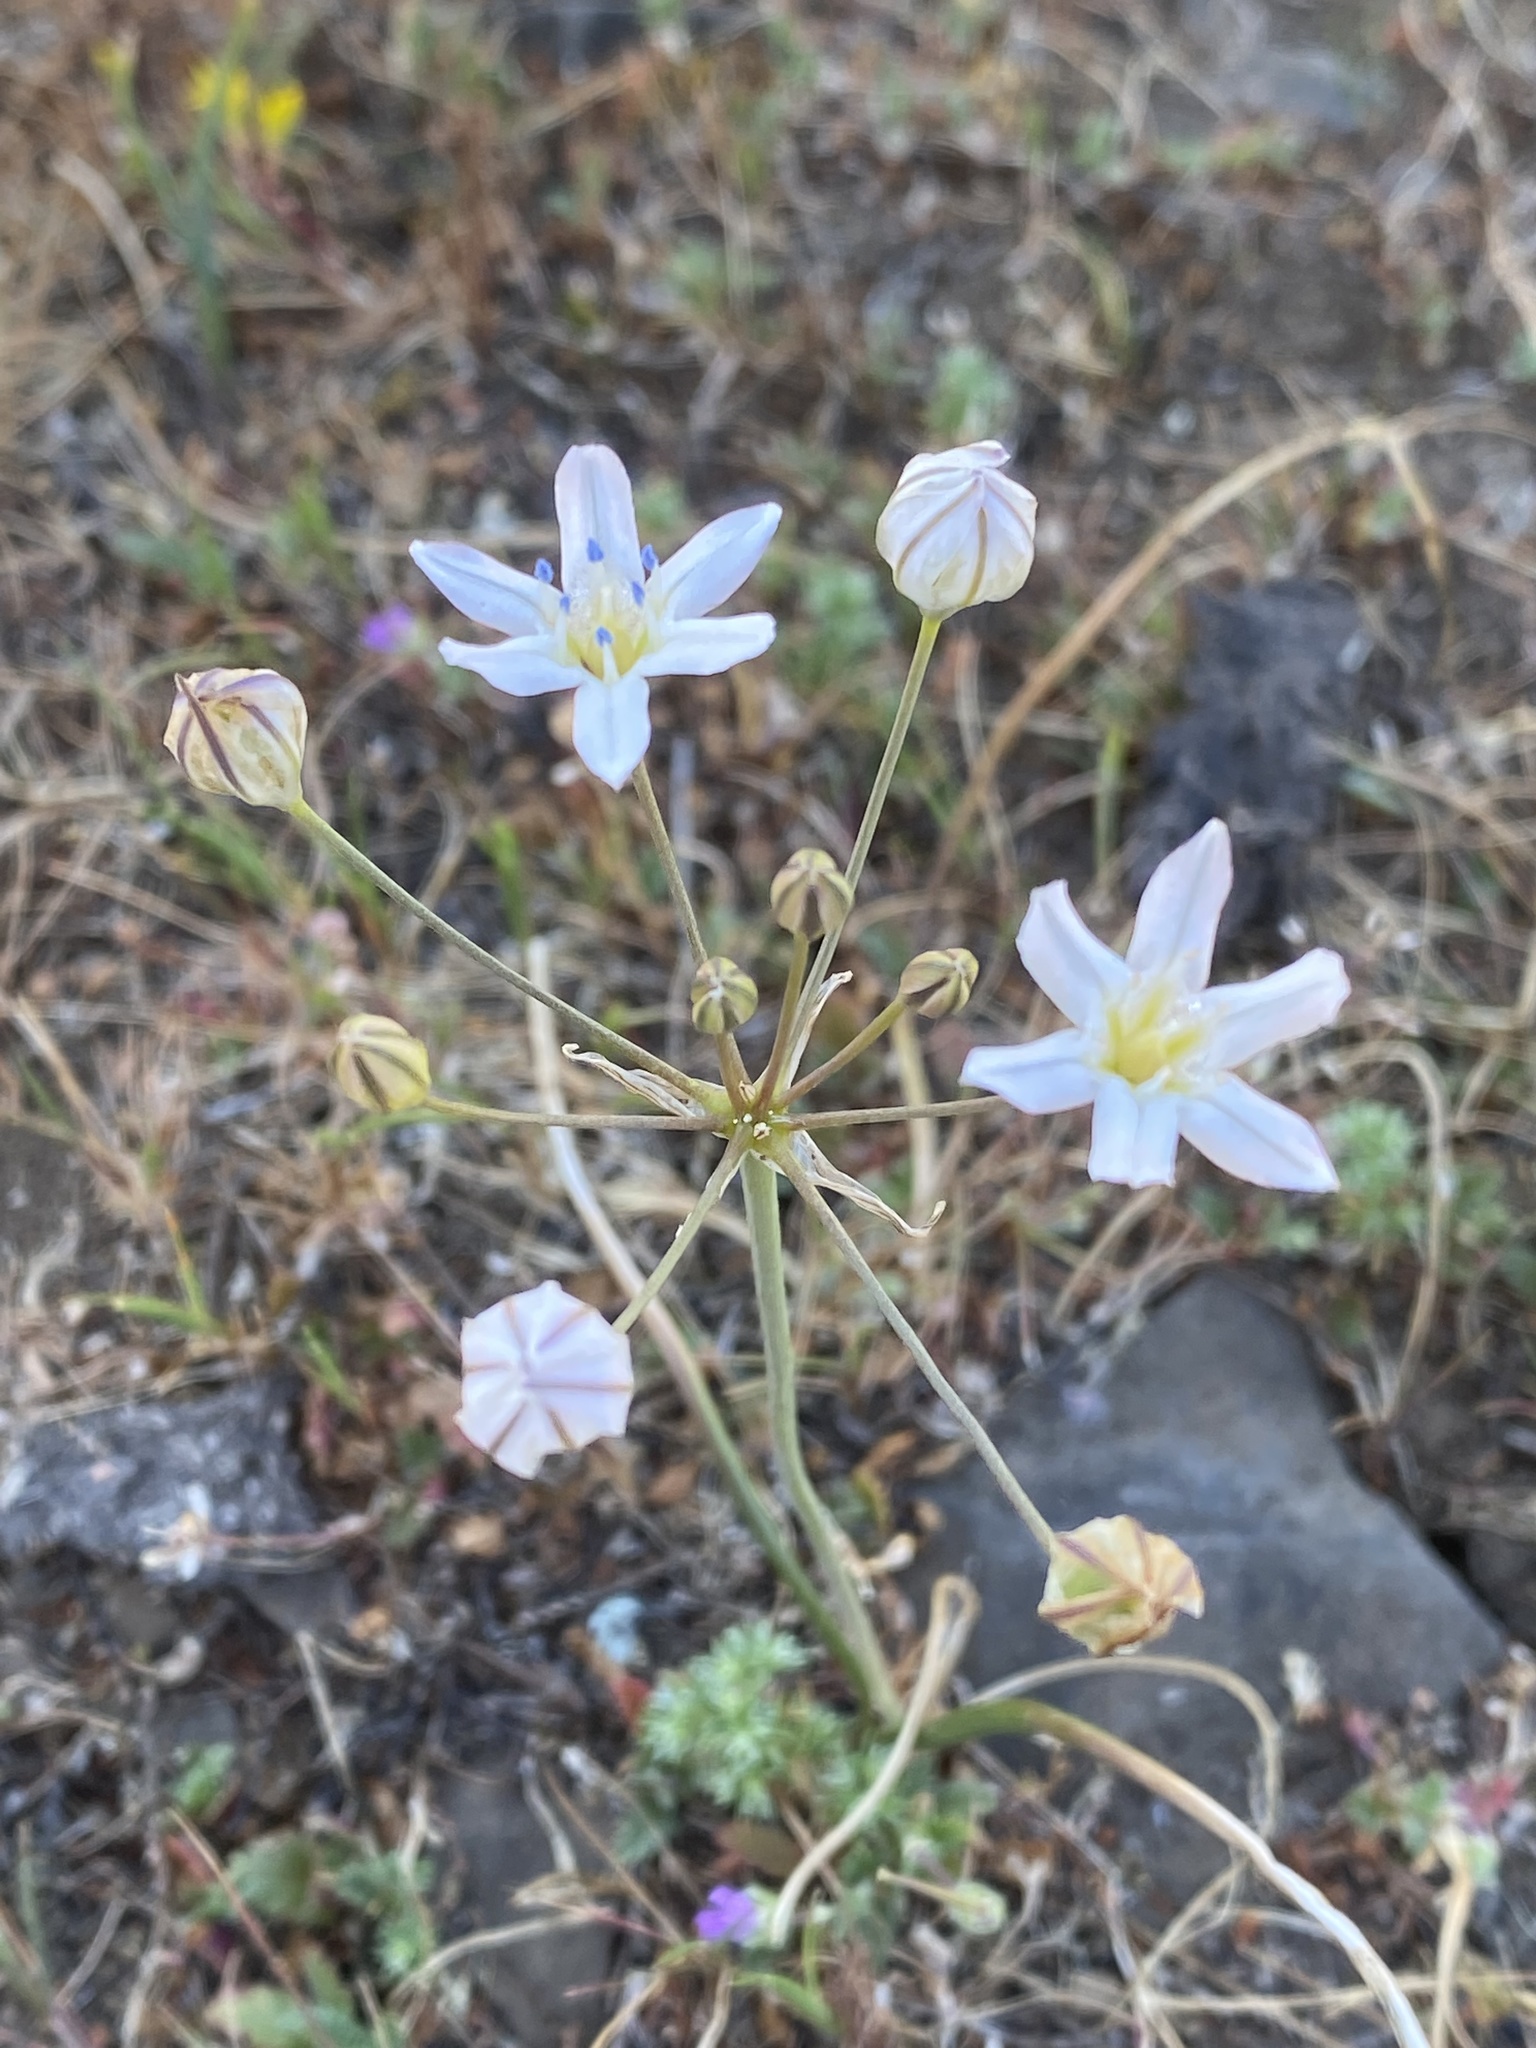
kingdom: Plantae
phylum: Tracheophyta
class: Liliopsida
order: Asparagales
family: Asparagaceae
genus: Triteleia
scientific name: Triteleia lilacina
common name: Lilac-flower wild hyacinth
